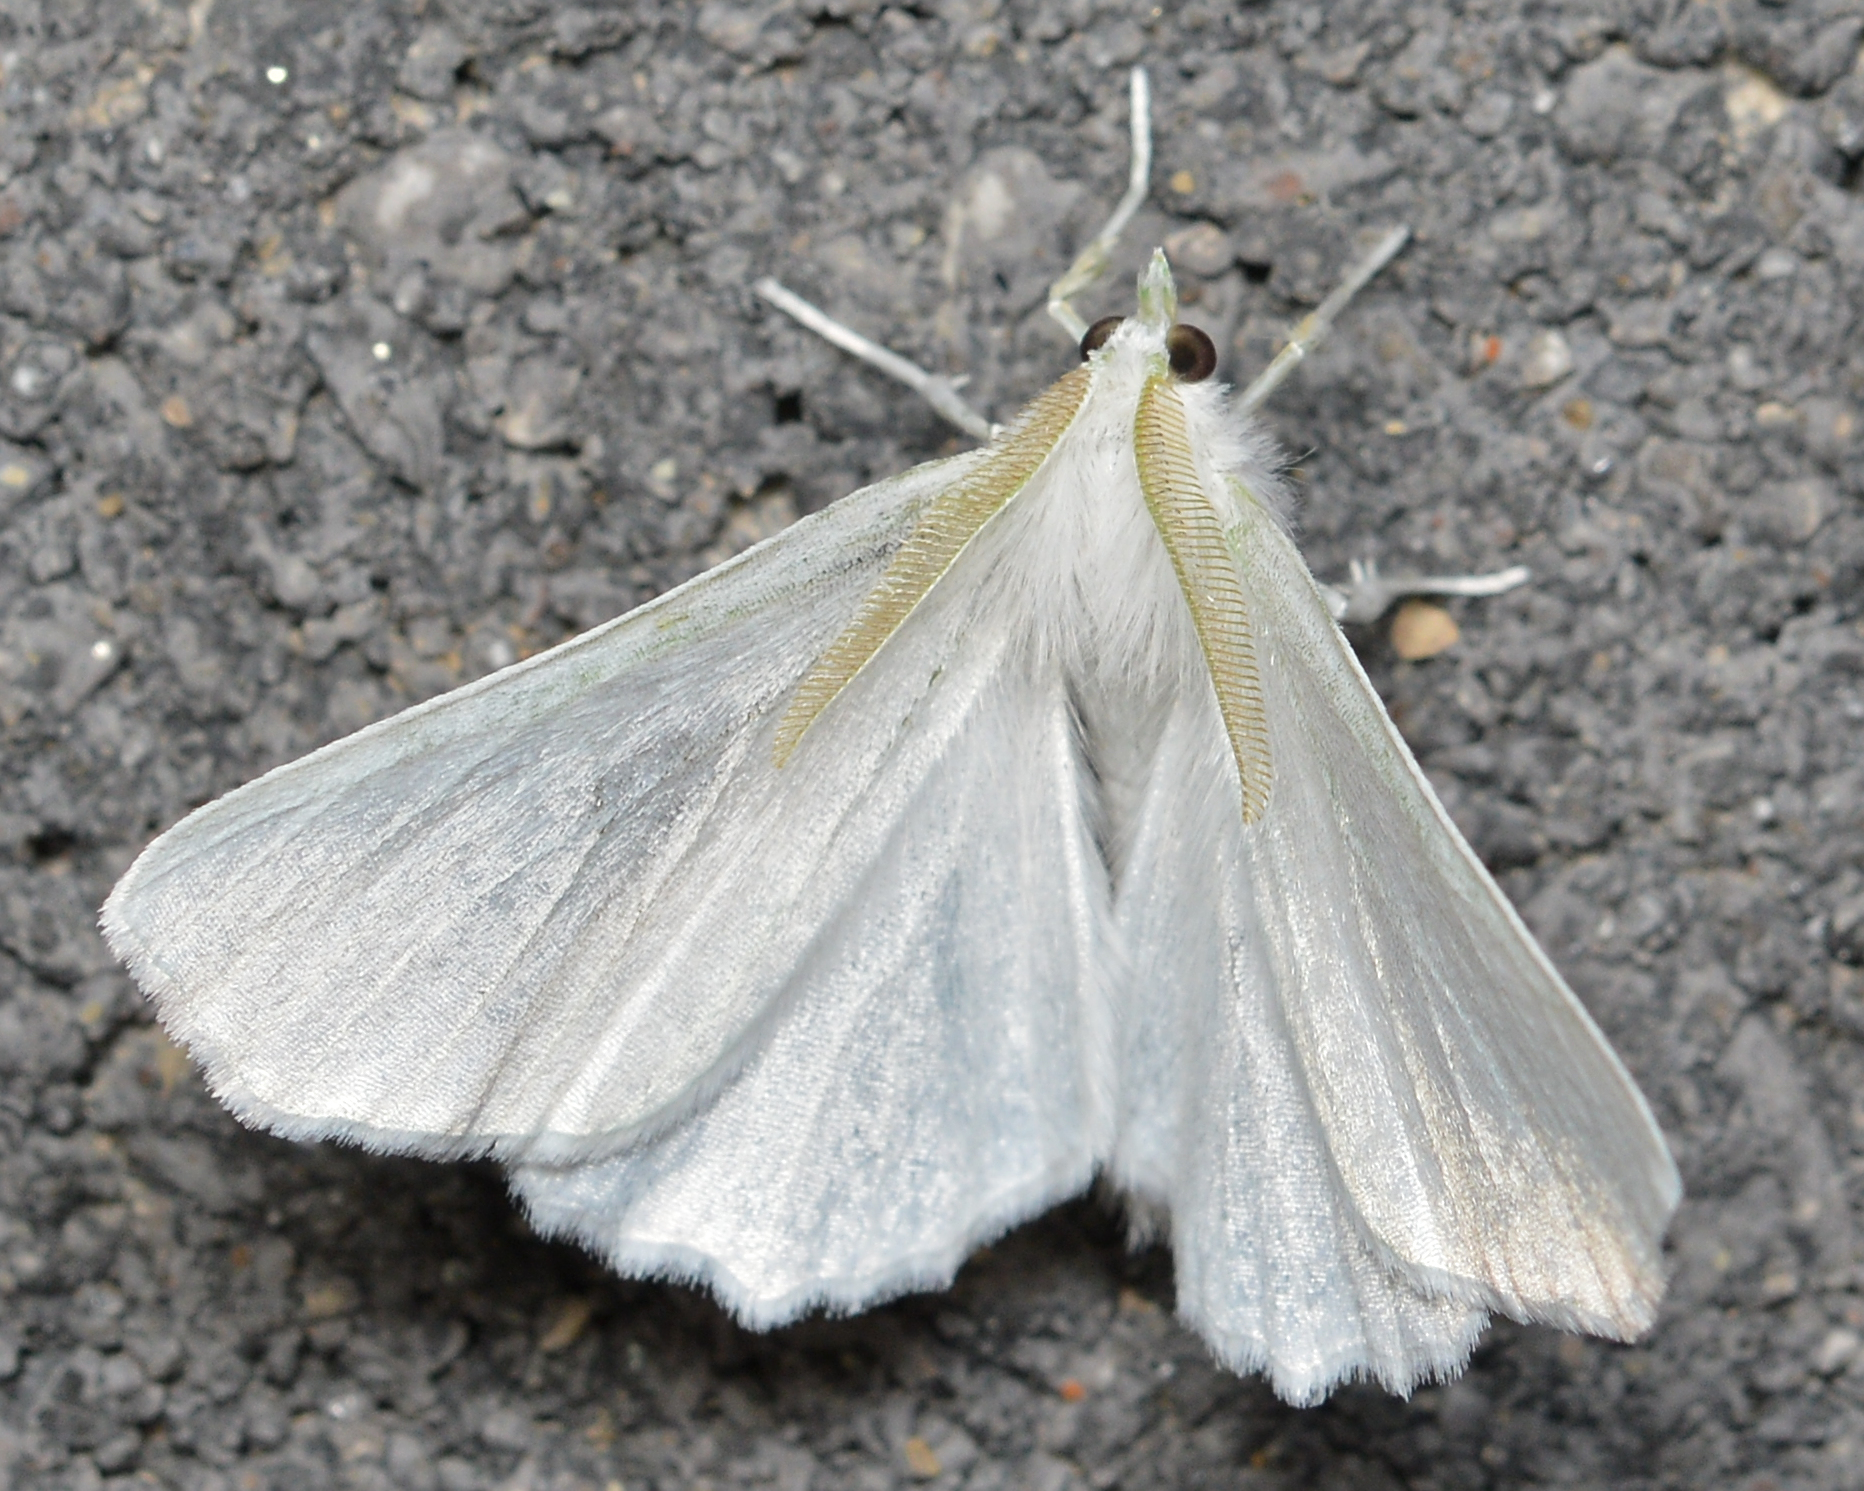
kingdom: Animalia
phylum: Arthropoda
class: Insecta
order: Lepidoptera
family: Geometridae
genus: Ennomos
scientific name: Ennomos subsignaria
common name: Elm spanworm
